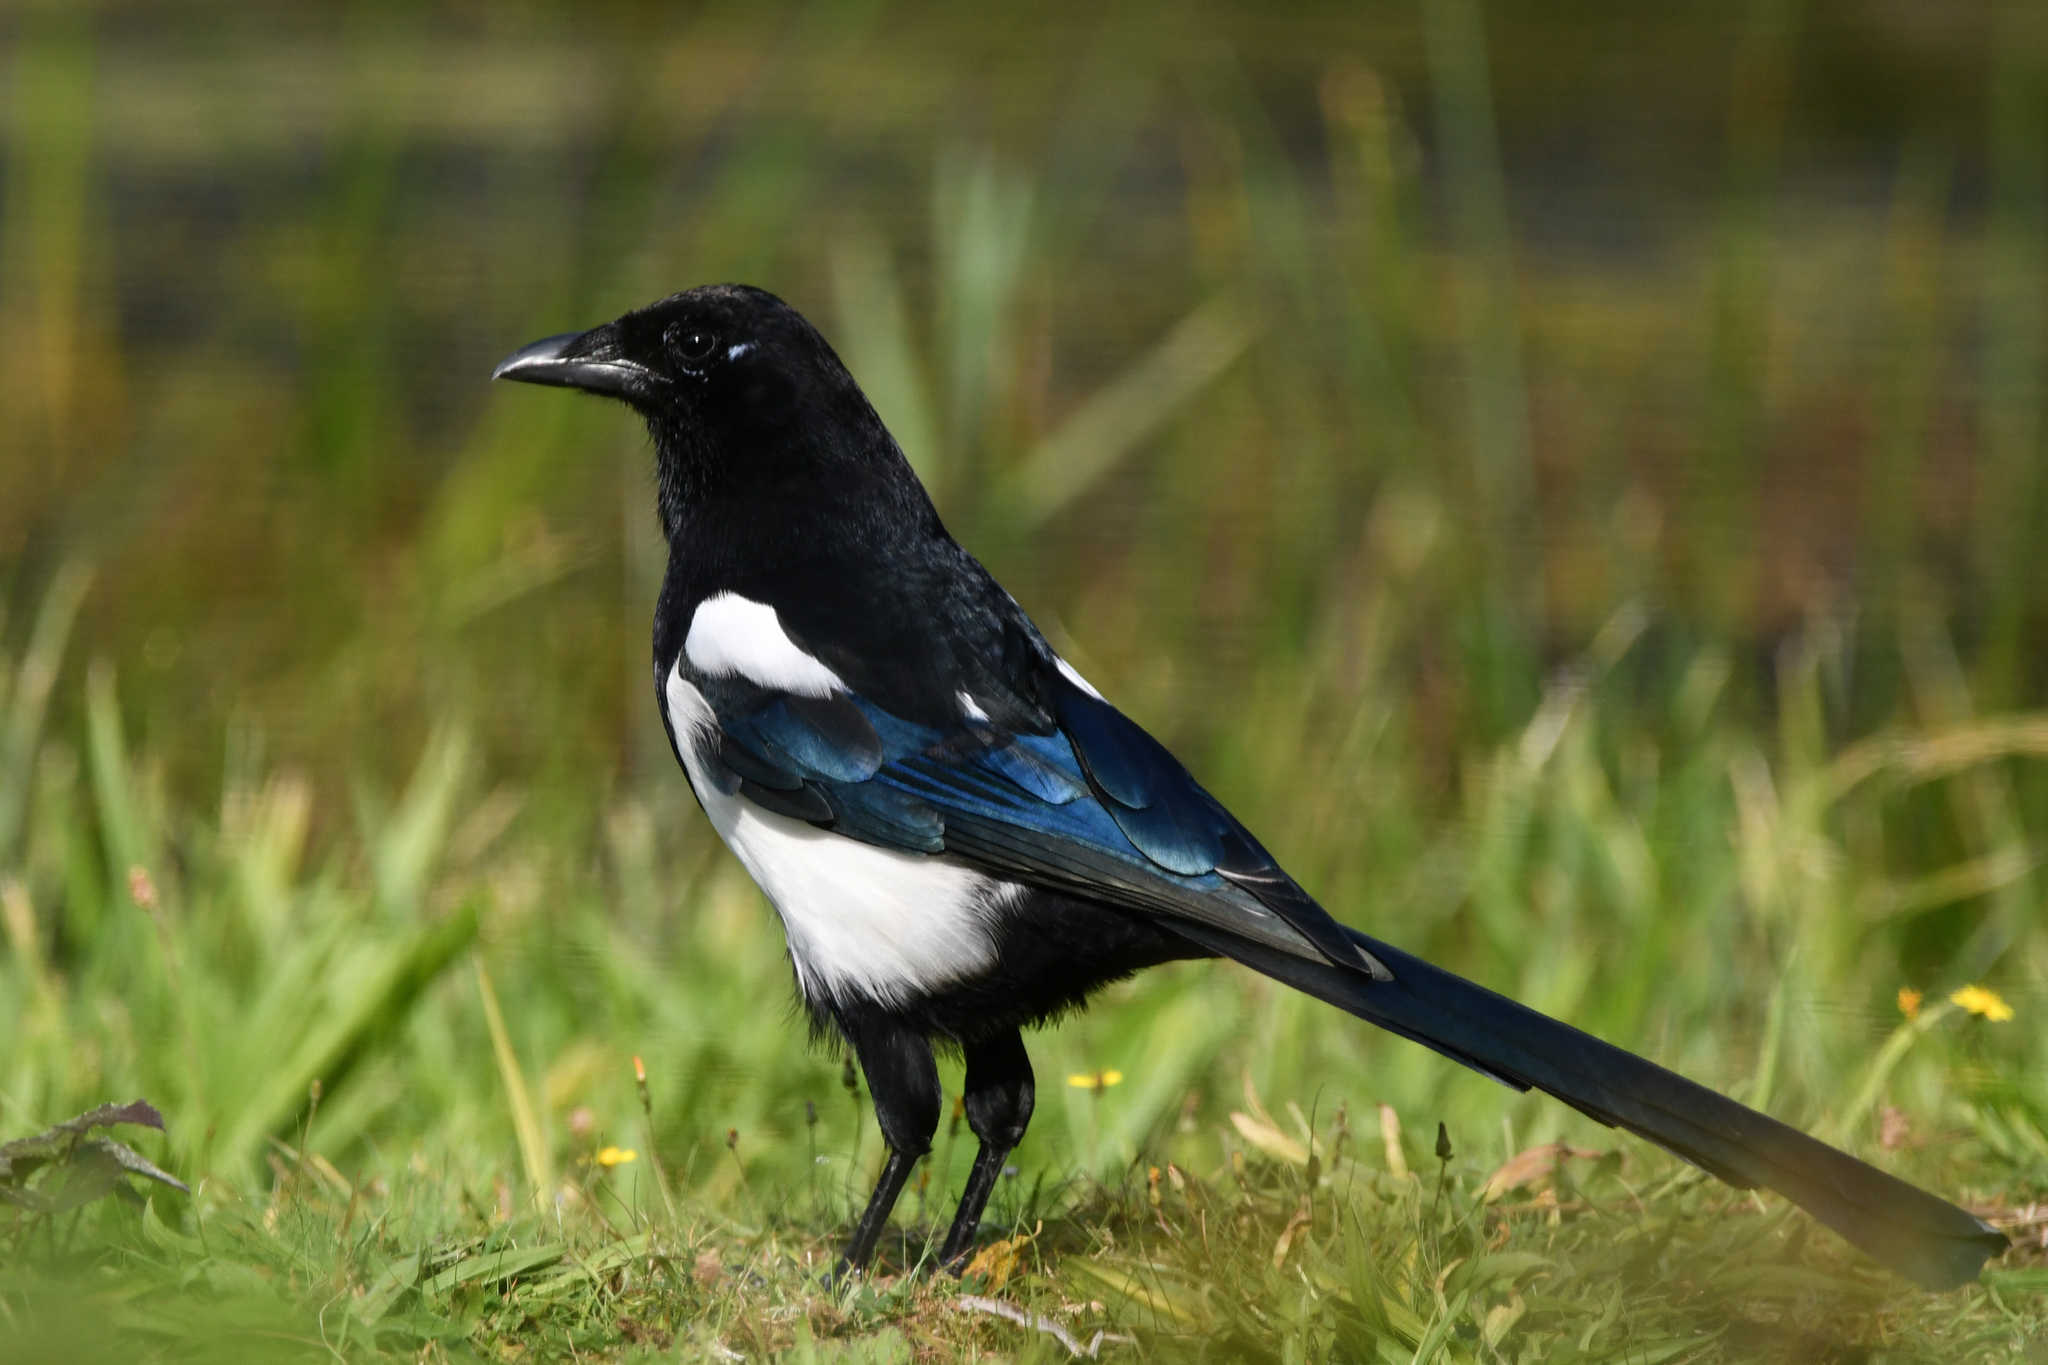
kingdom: Animalia
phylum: Chordata
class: Aves
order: Passeriformes
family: Corvidae
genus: Pica
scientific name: Pica pica
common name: Eurasian magpie
